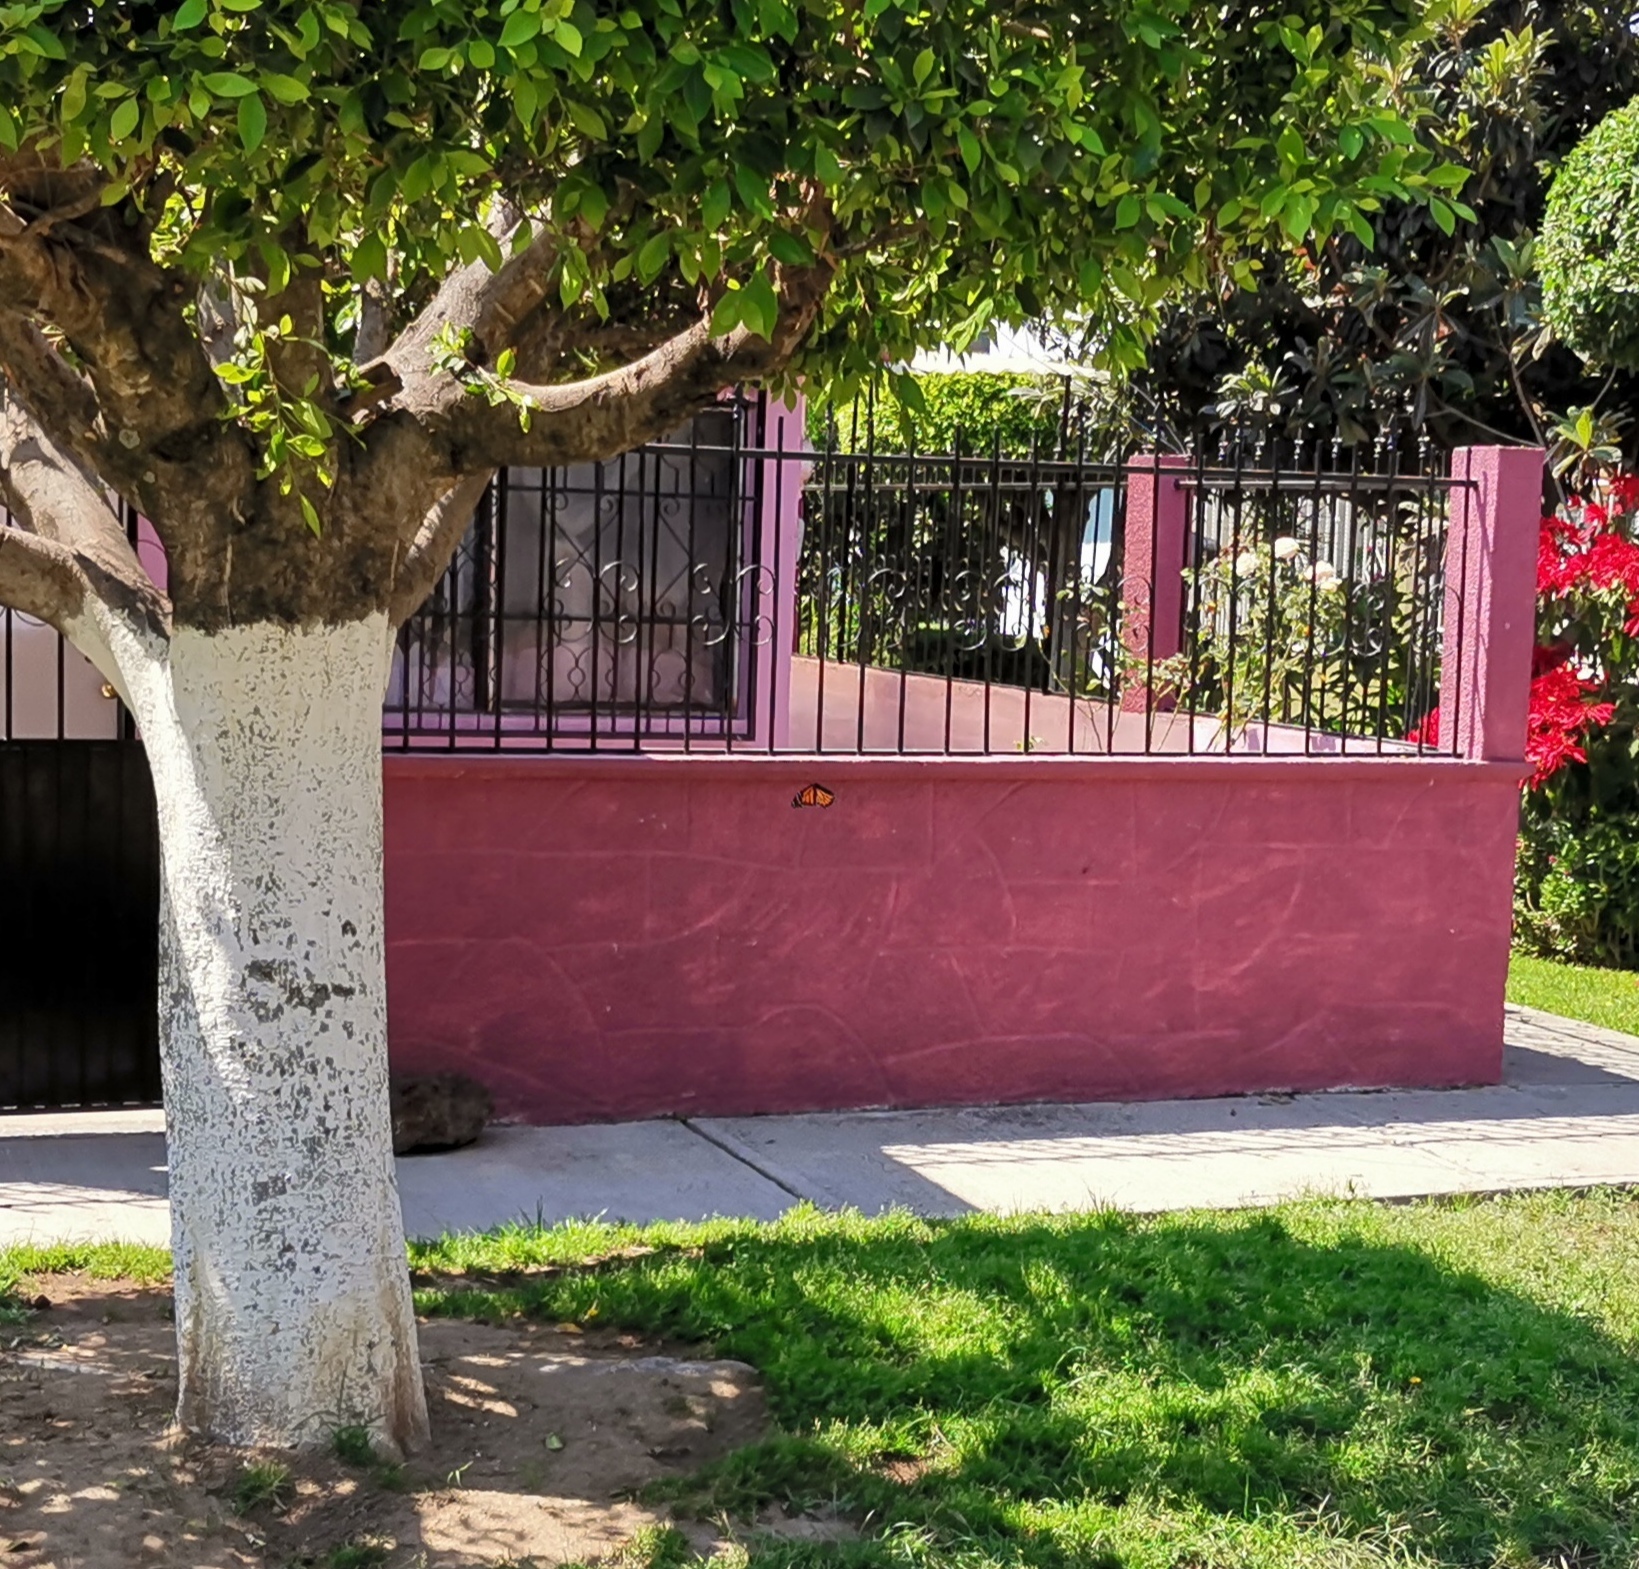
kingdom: Animalia
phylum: Arthropoda
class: Insecta
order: Lepidoptera
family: Nymphalidae
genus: Danaus
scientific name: Danaus plexippus
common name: Monarch
